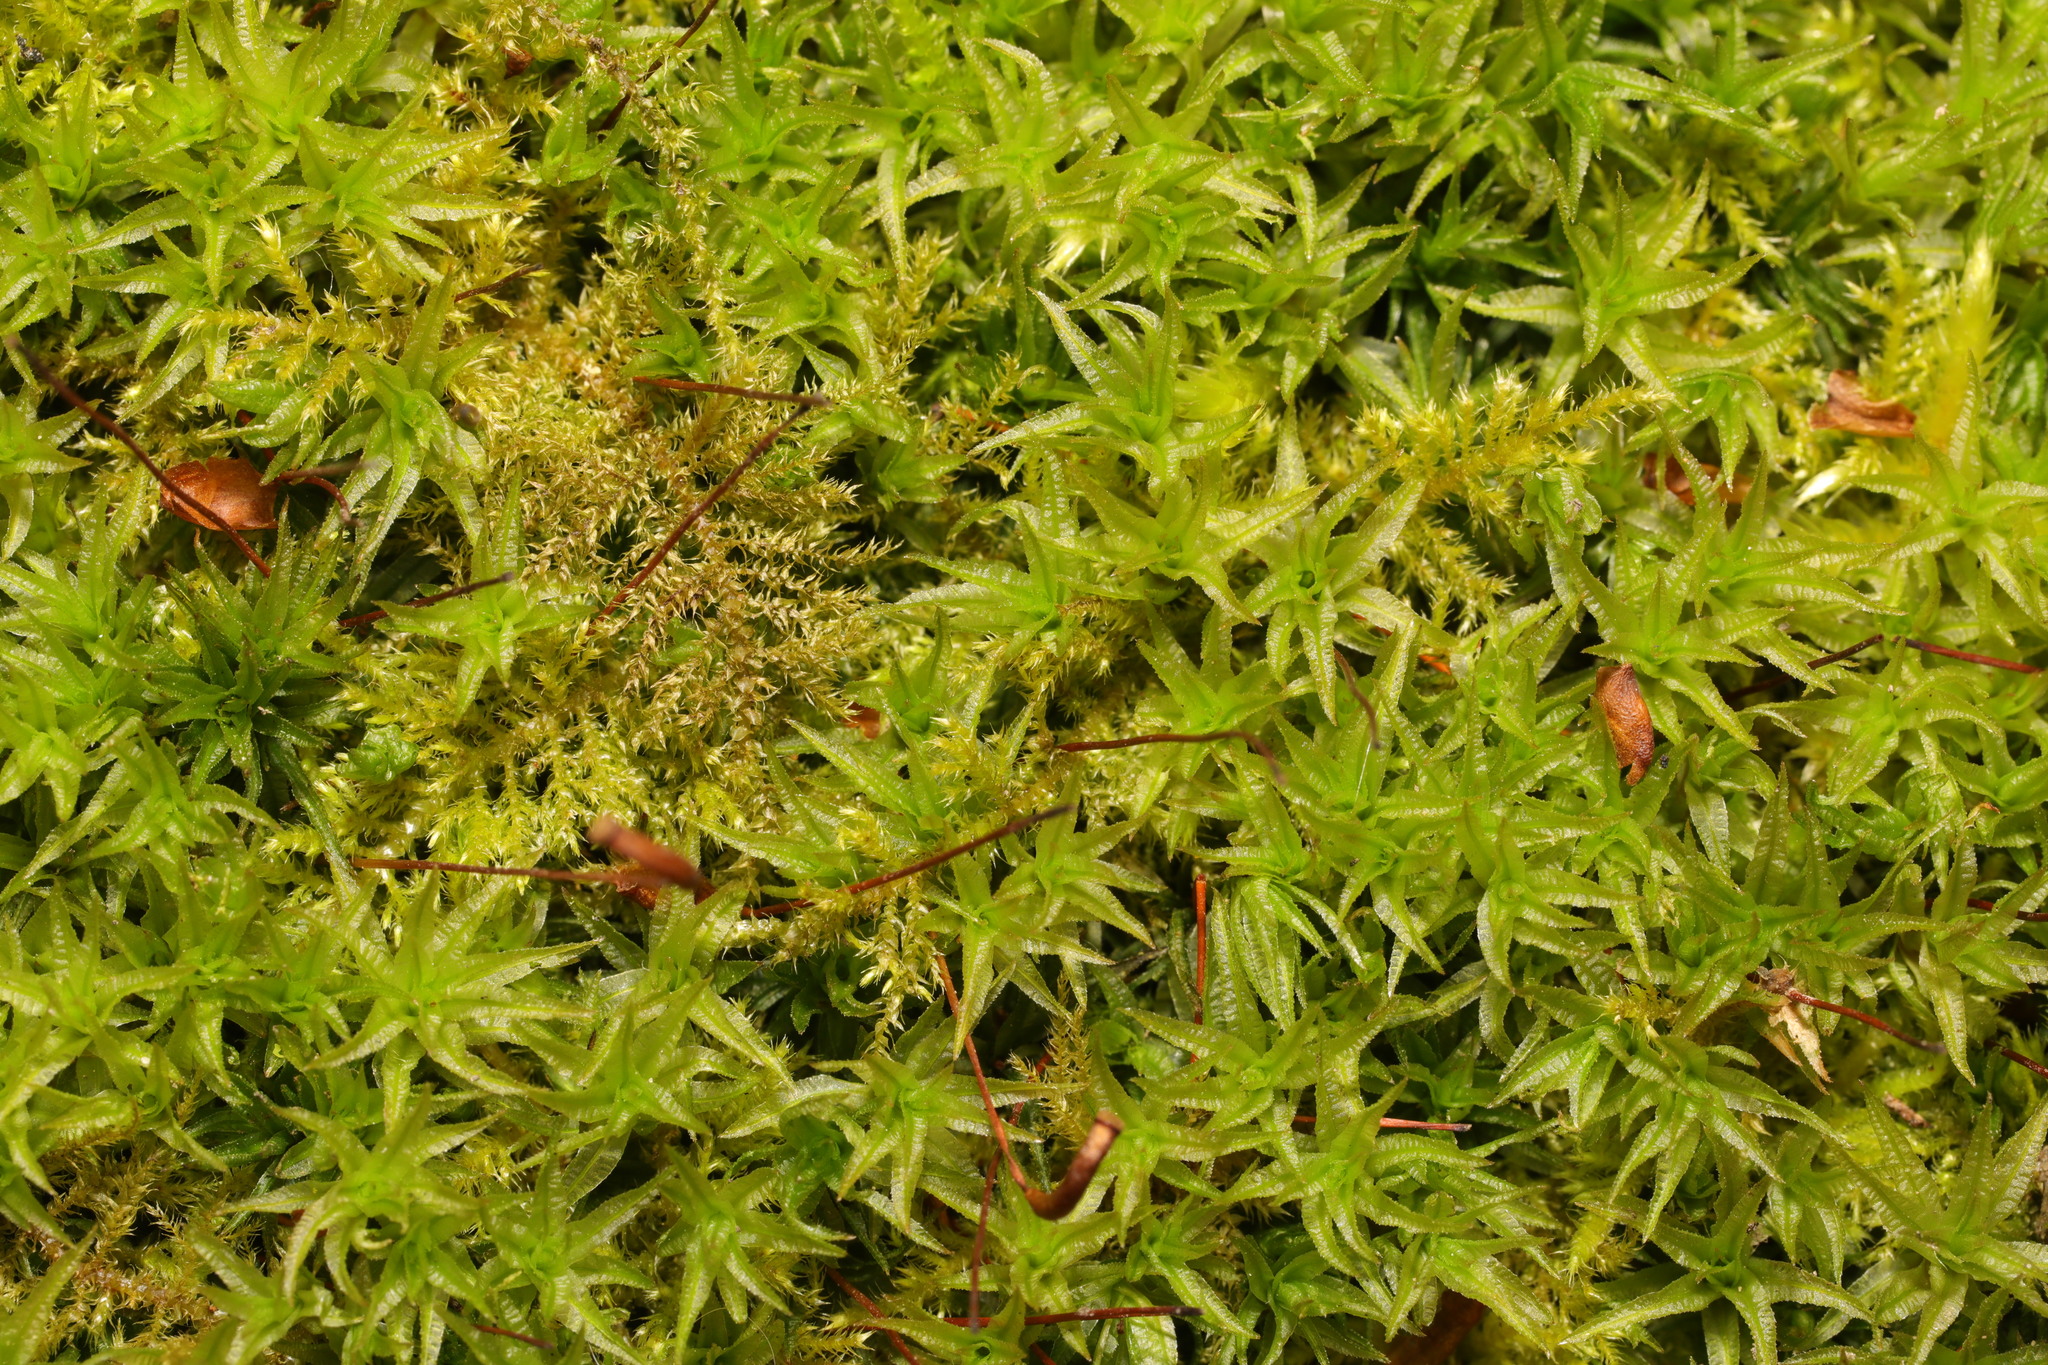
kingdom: Plantae
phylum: Bryophyta
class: Polytrichopsida
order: Polytrichales
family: Polytrichaceae
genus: Atrichum
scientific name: Atrichum undulatum
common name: Common smoothcap
